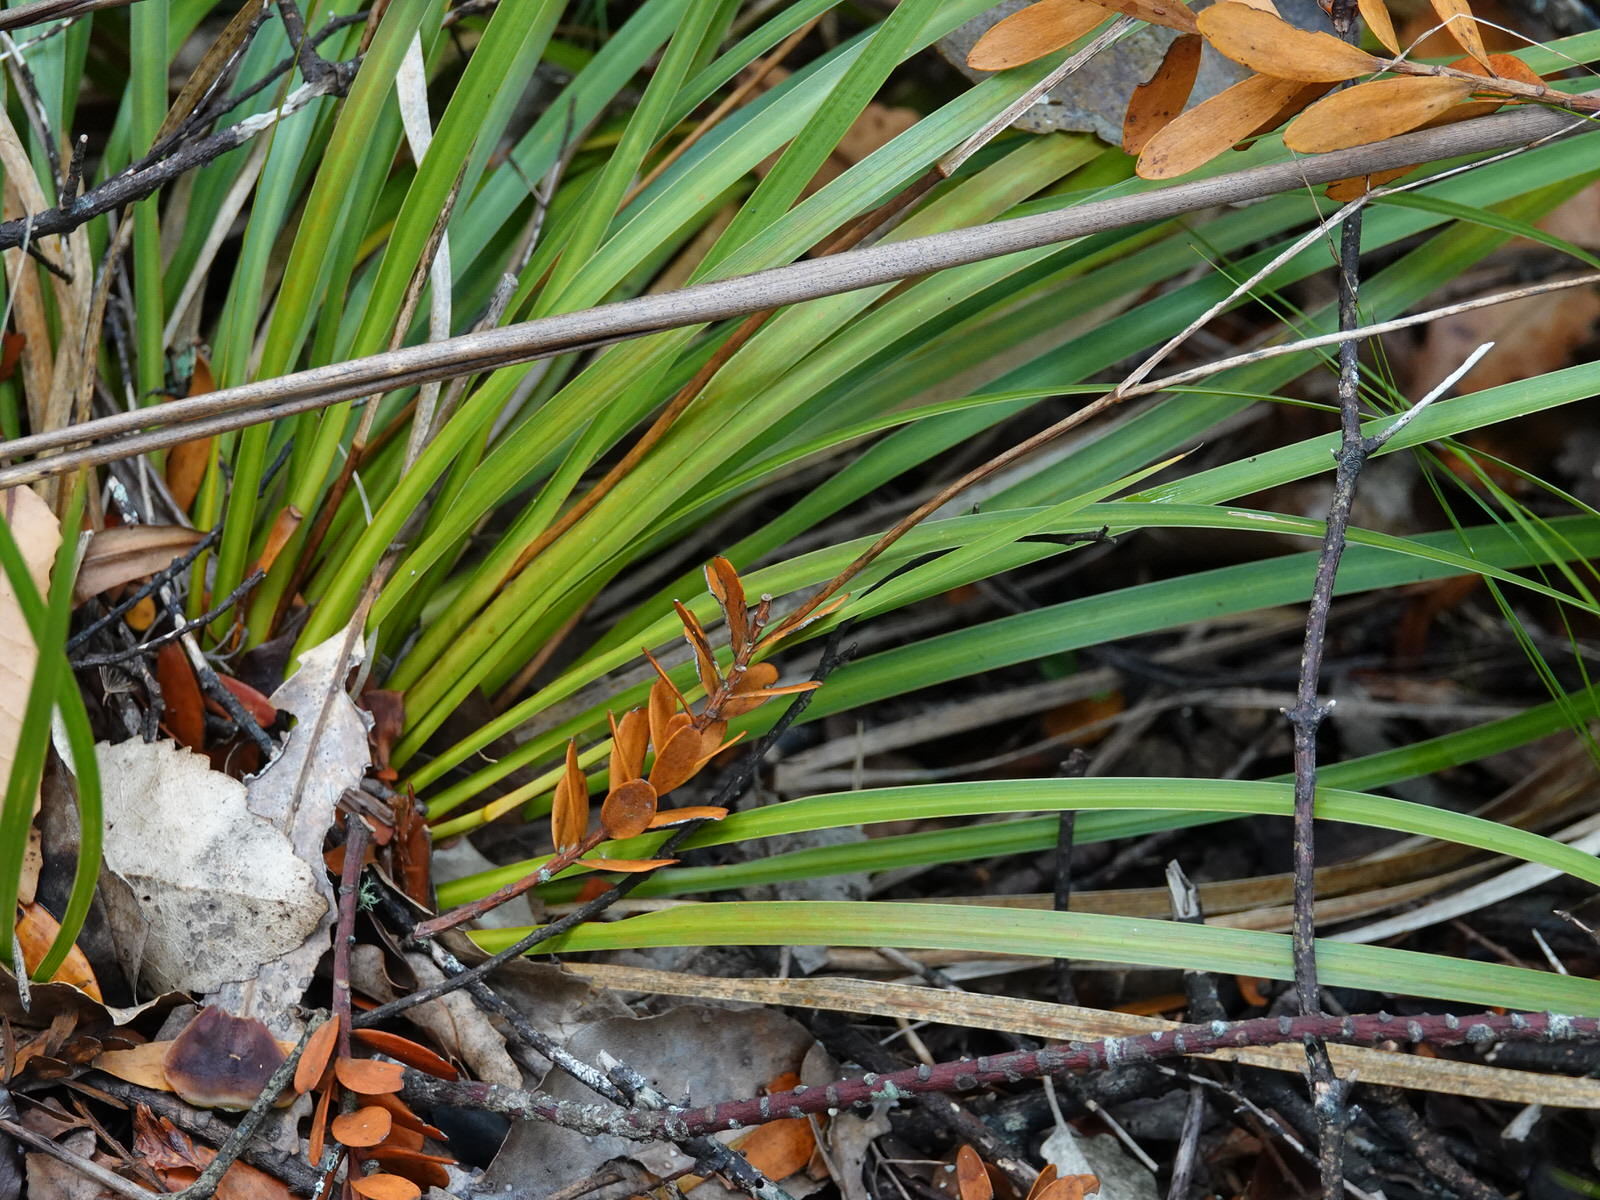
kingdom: Plantae
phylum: Tracheophyta
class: Liliopsida
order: Asparagales
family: Iridaceae
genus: Libertia
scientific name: Libertia grandiflora
